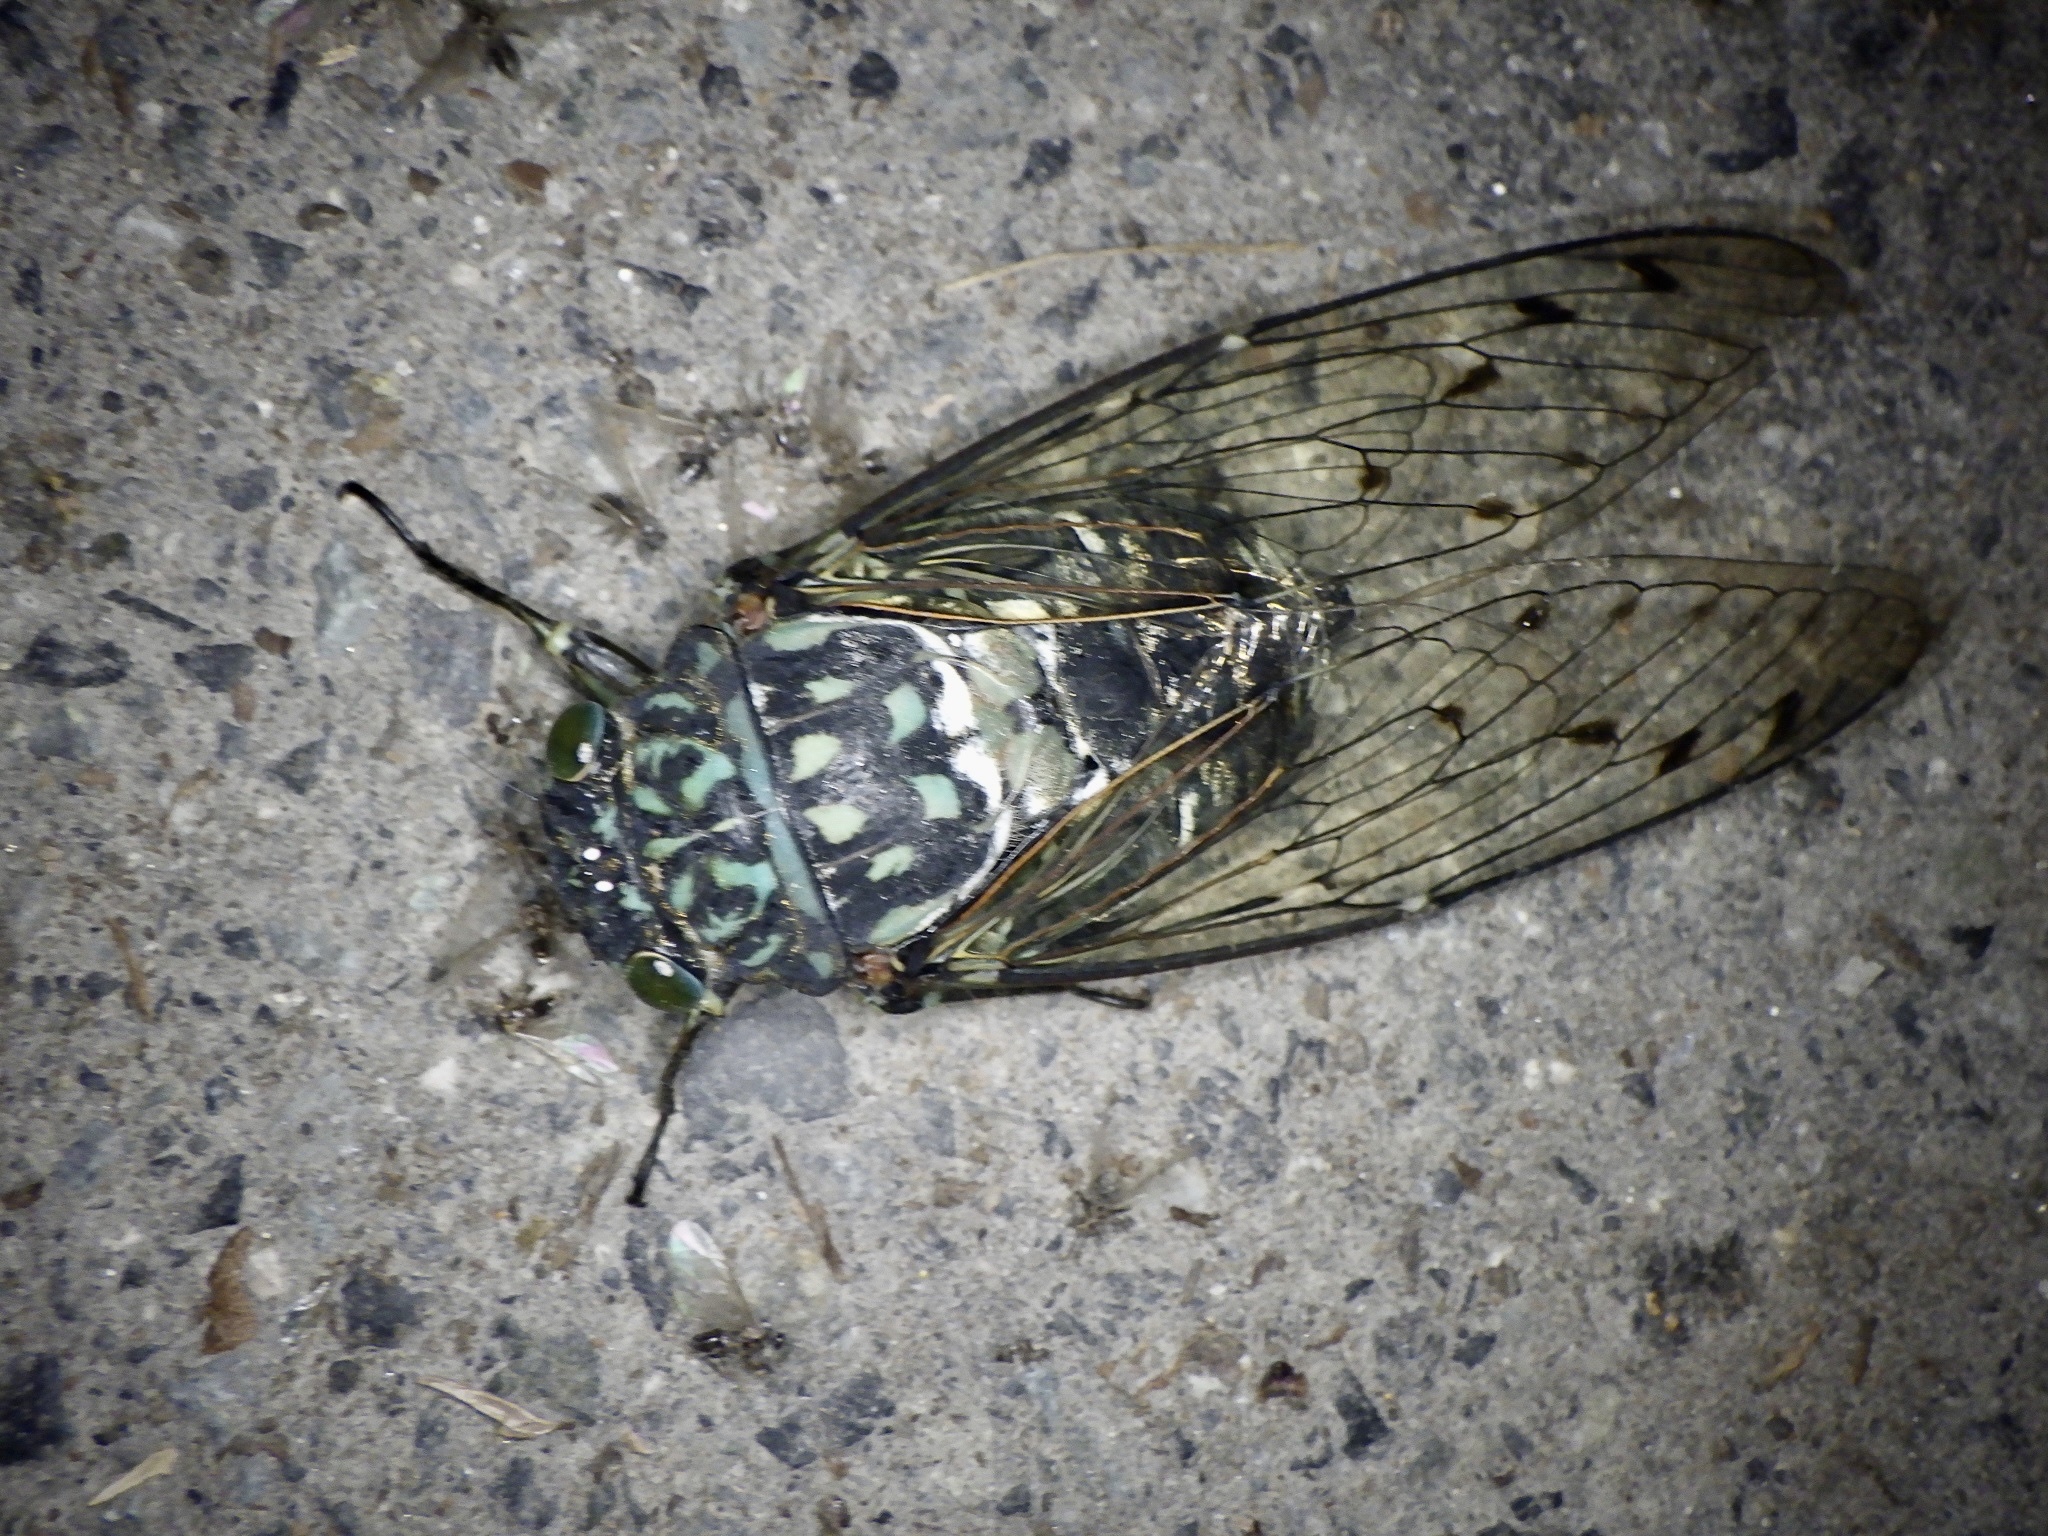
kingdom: Animalia
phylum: Arthropoda
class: Insecta
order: Hemiptera
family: Cicadidae
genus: Hyalessa
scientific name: Hyalessa maculaticollis
